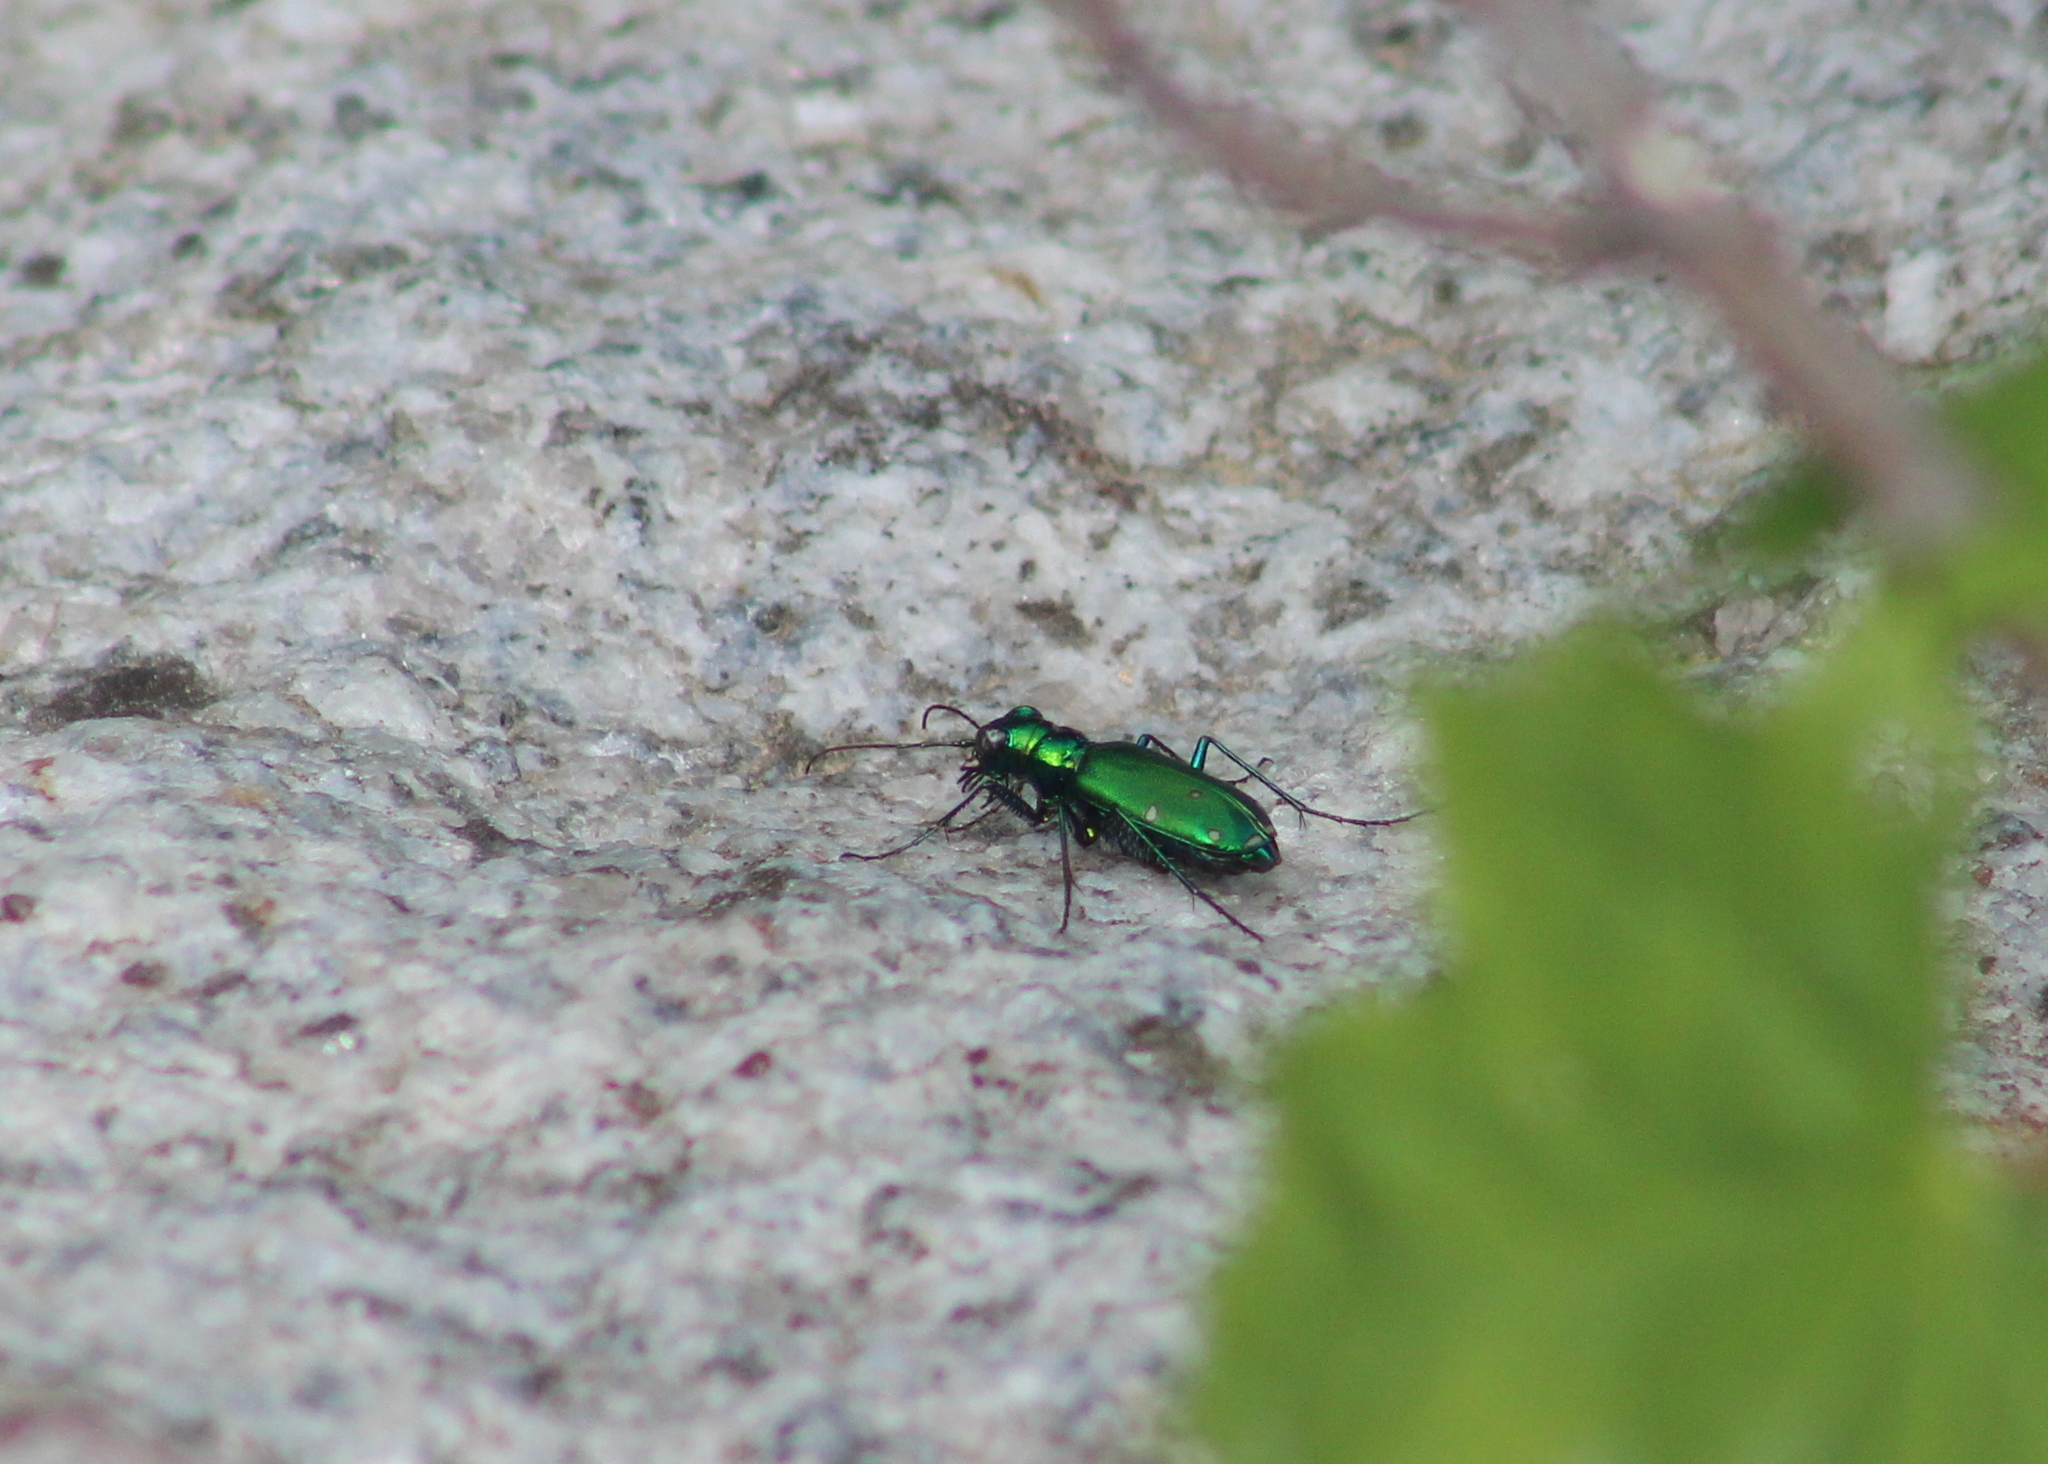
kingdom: Animalia
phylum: Arthropoda
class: Insecta
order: Coleoptera
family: Carabidae
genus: Cicindela
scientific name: Cicindela sexguttata
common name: Six-spotted tiger beetle
